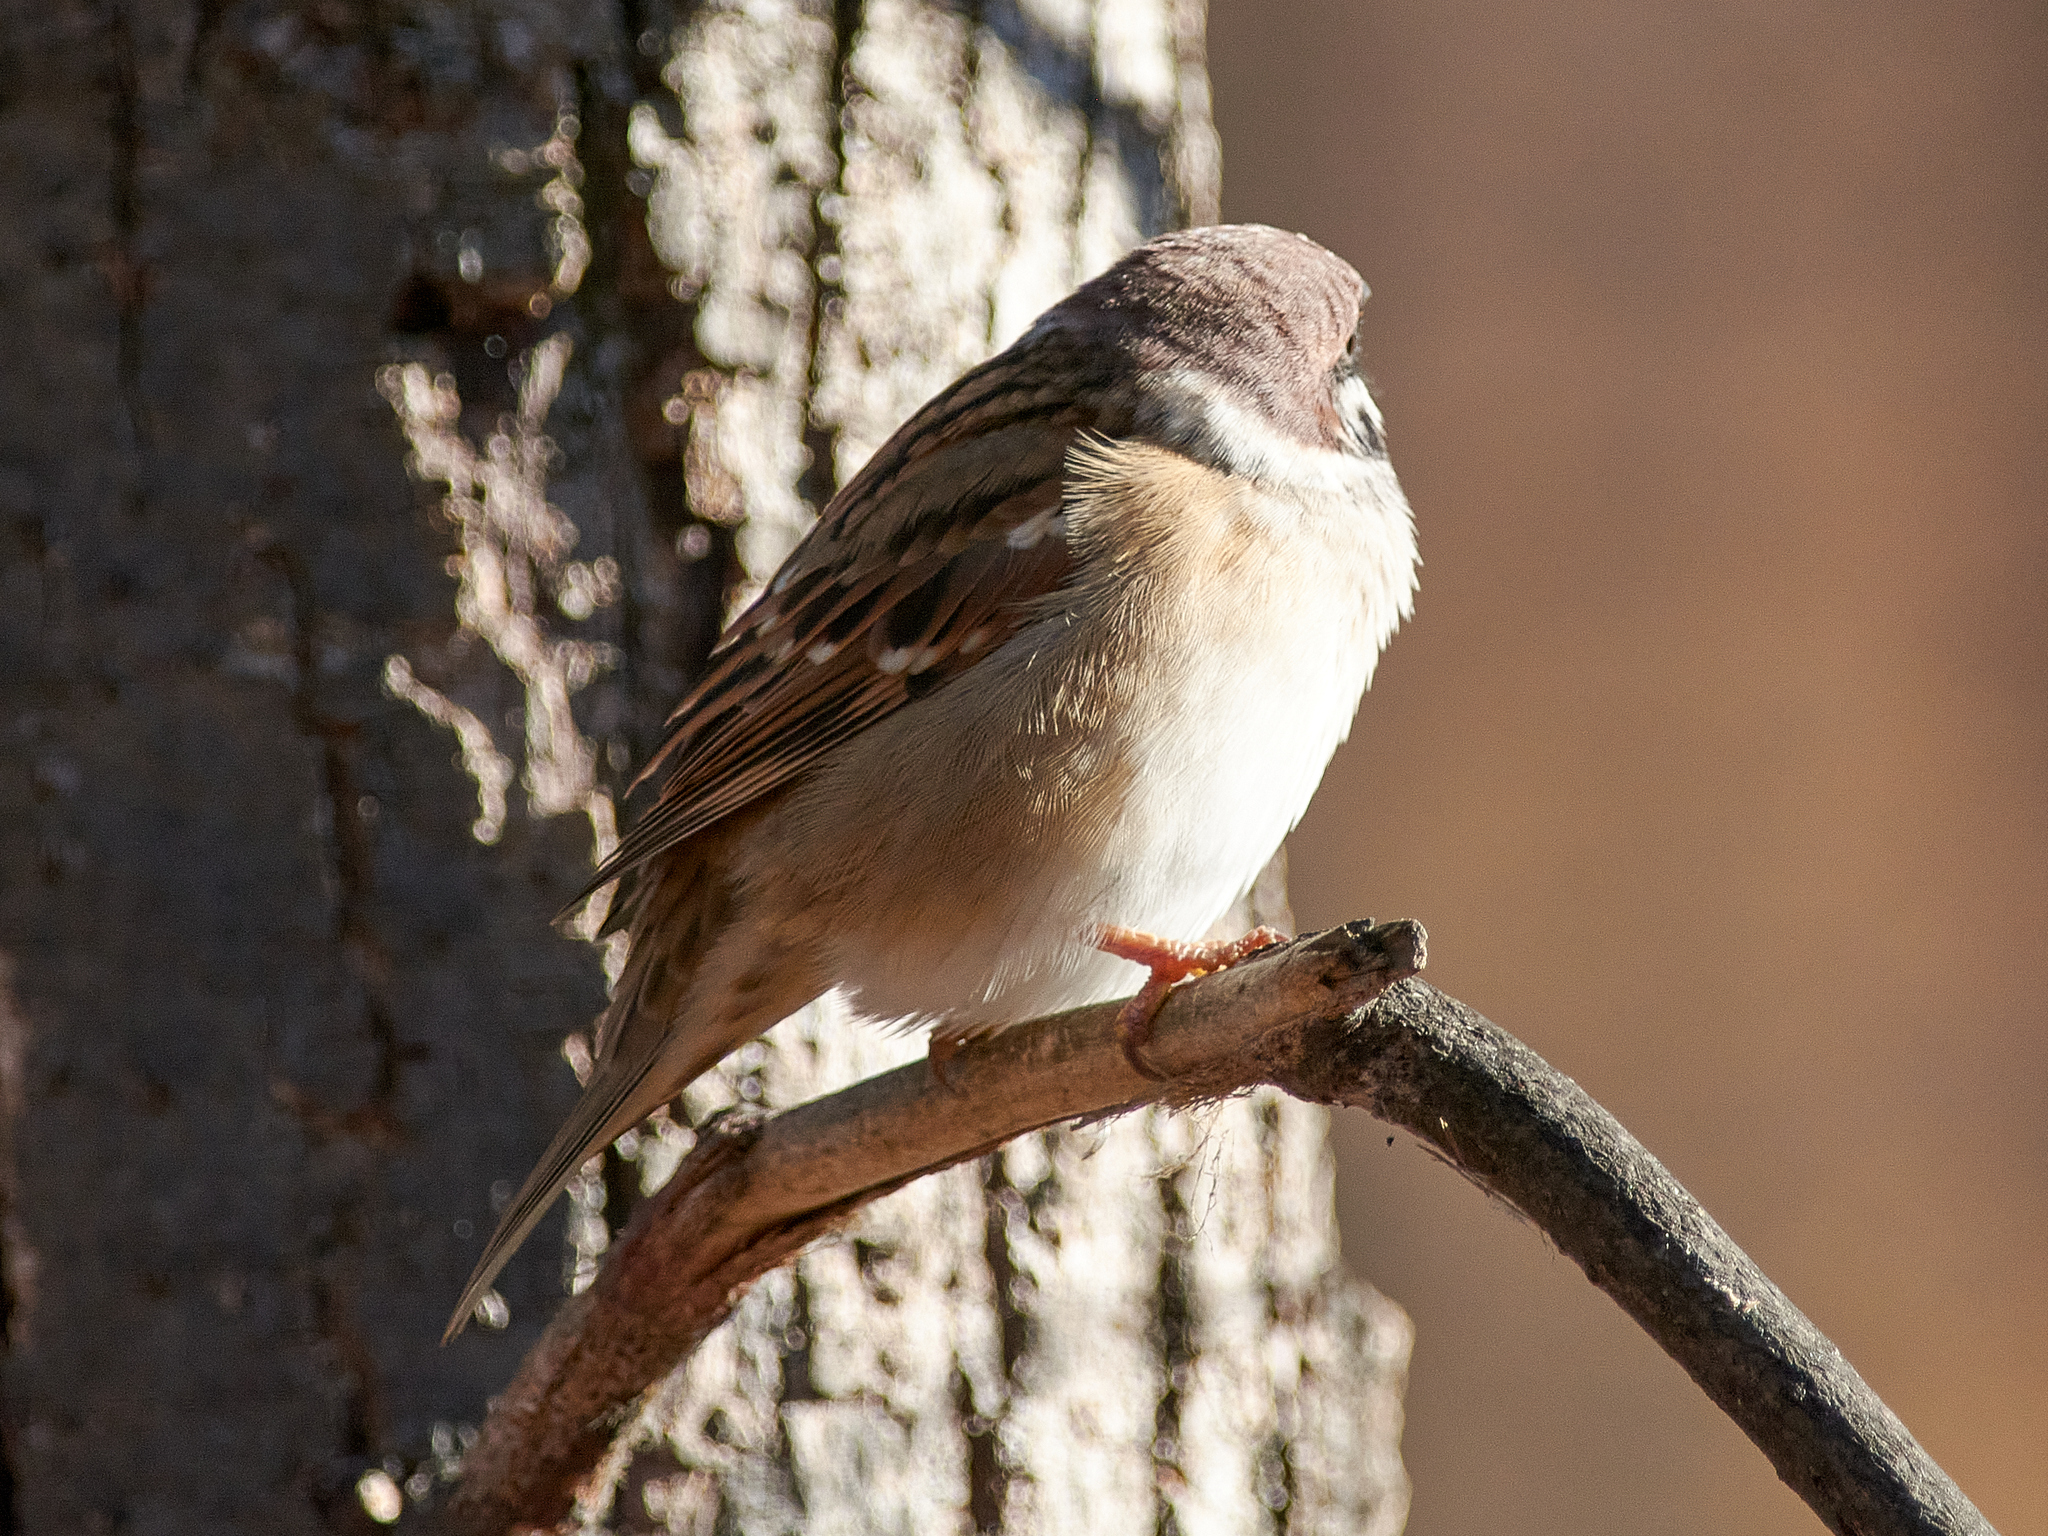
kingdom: Animalia
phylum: Chordata
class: Aves
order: Passeriformes
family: Passeridae
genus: Passer
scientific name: Passer montanus
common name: Eurasian tree sparrow
